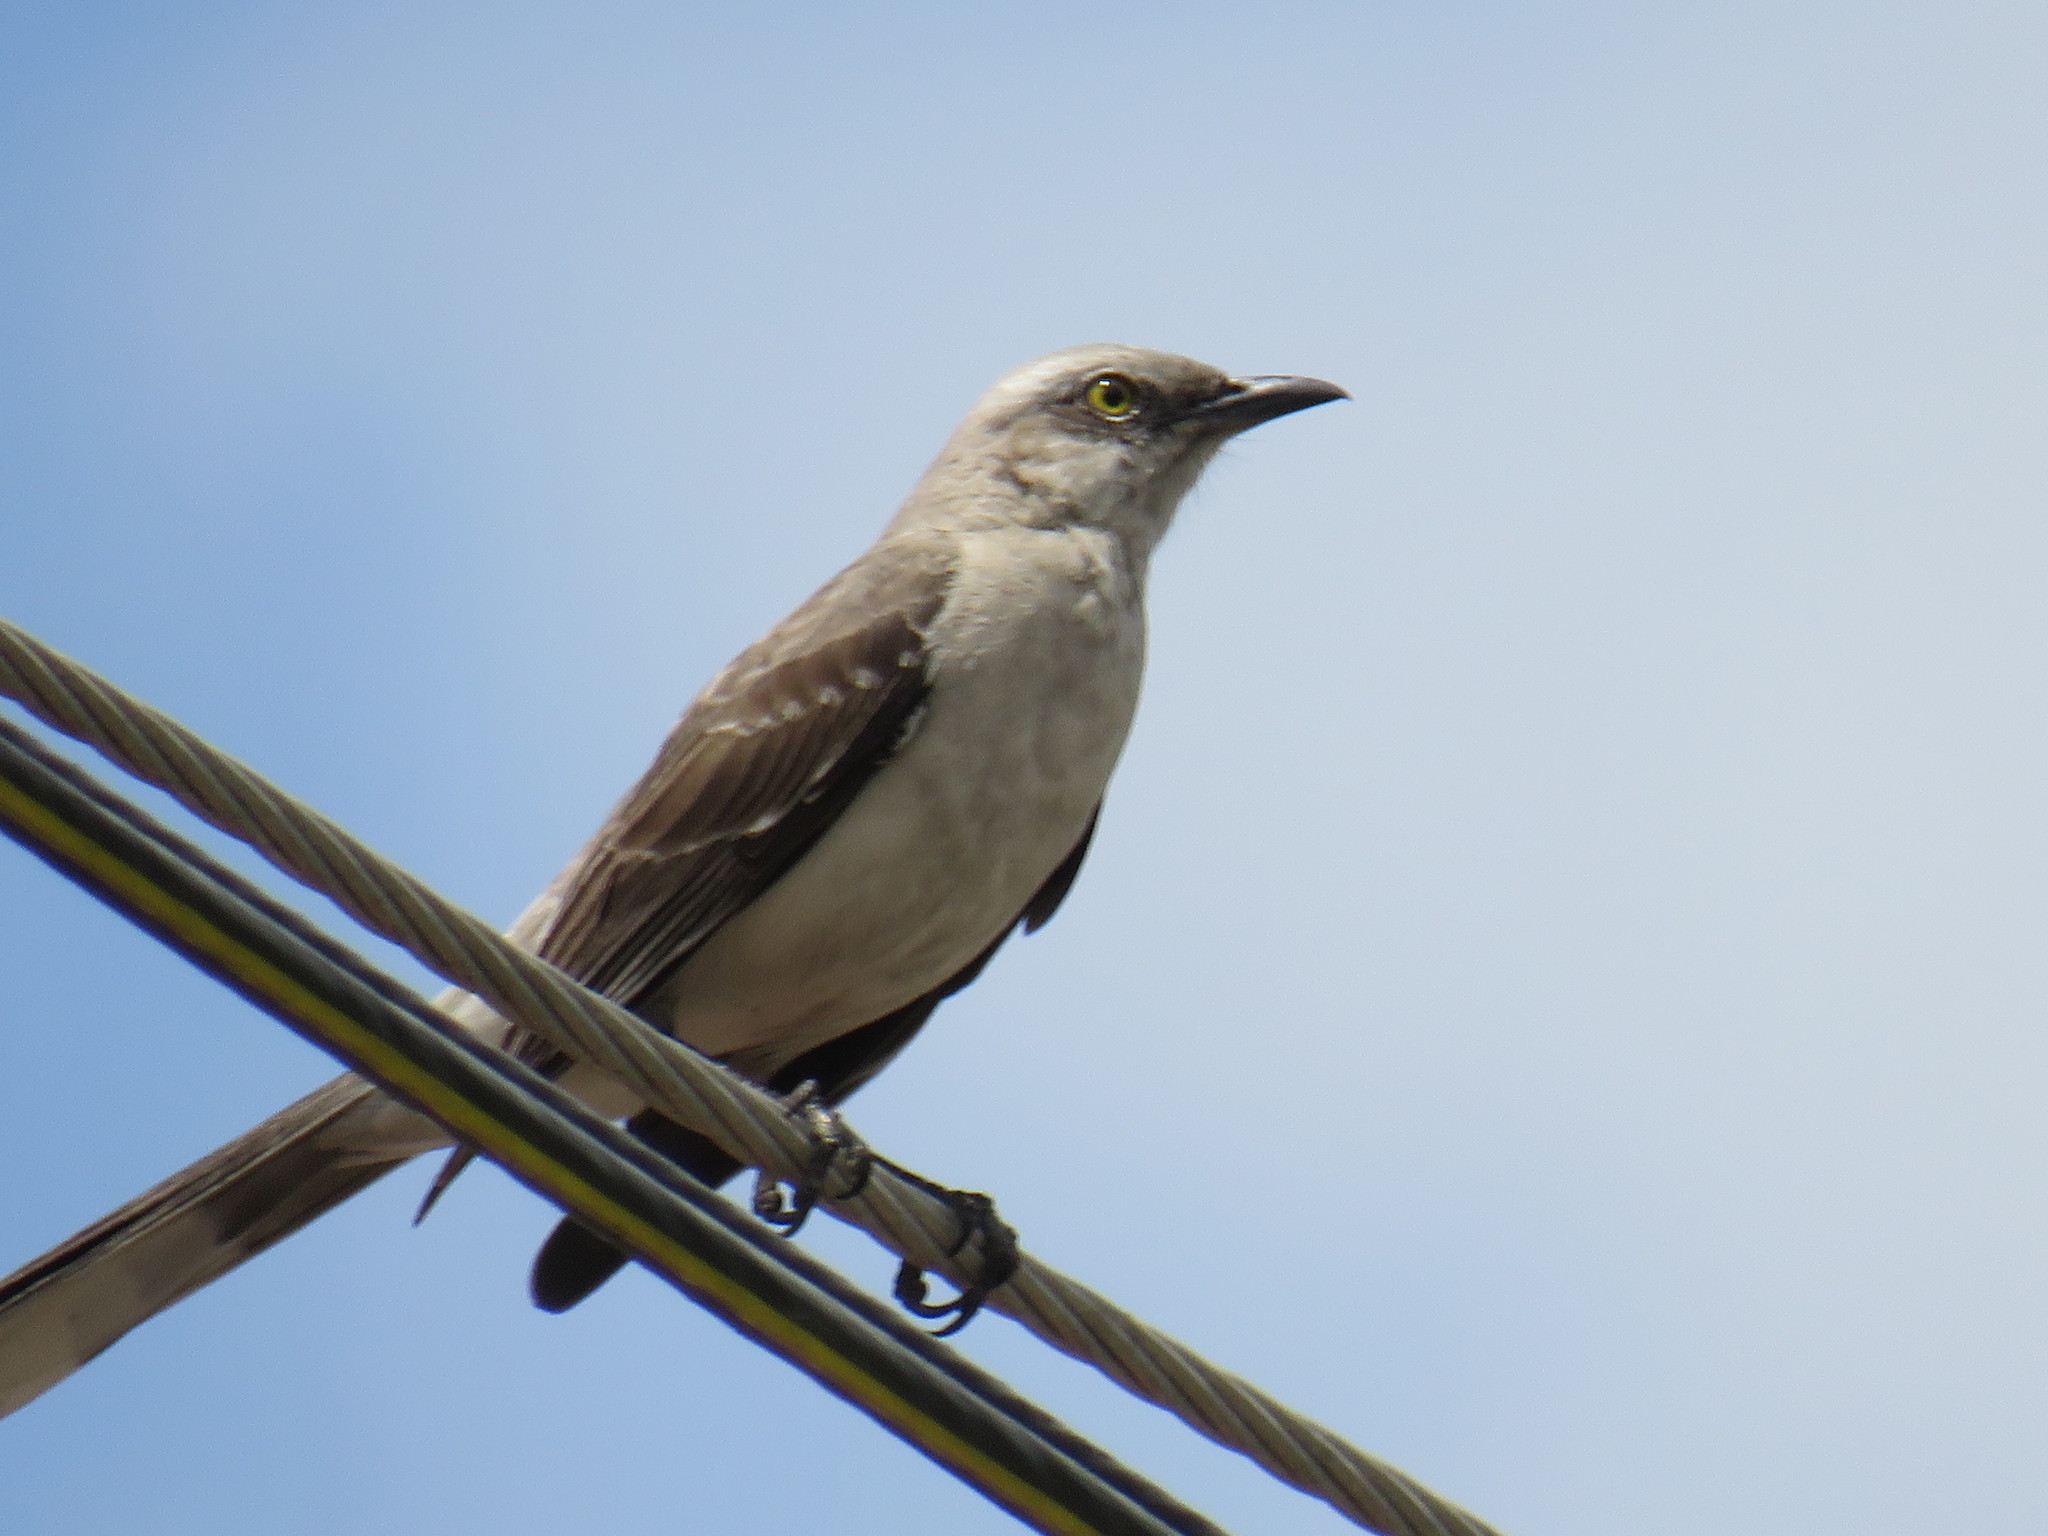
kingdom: Animalia
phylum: Chordata
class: Aves
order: Passeriformes
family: Mimidae
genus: Mimus
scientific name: Mimus gilvus
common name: Tropical mockingbird
